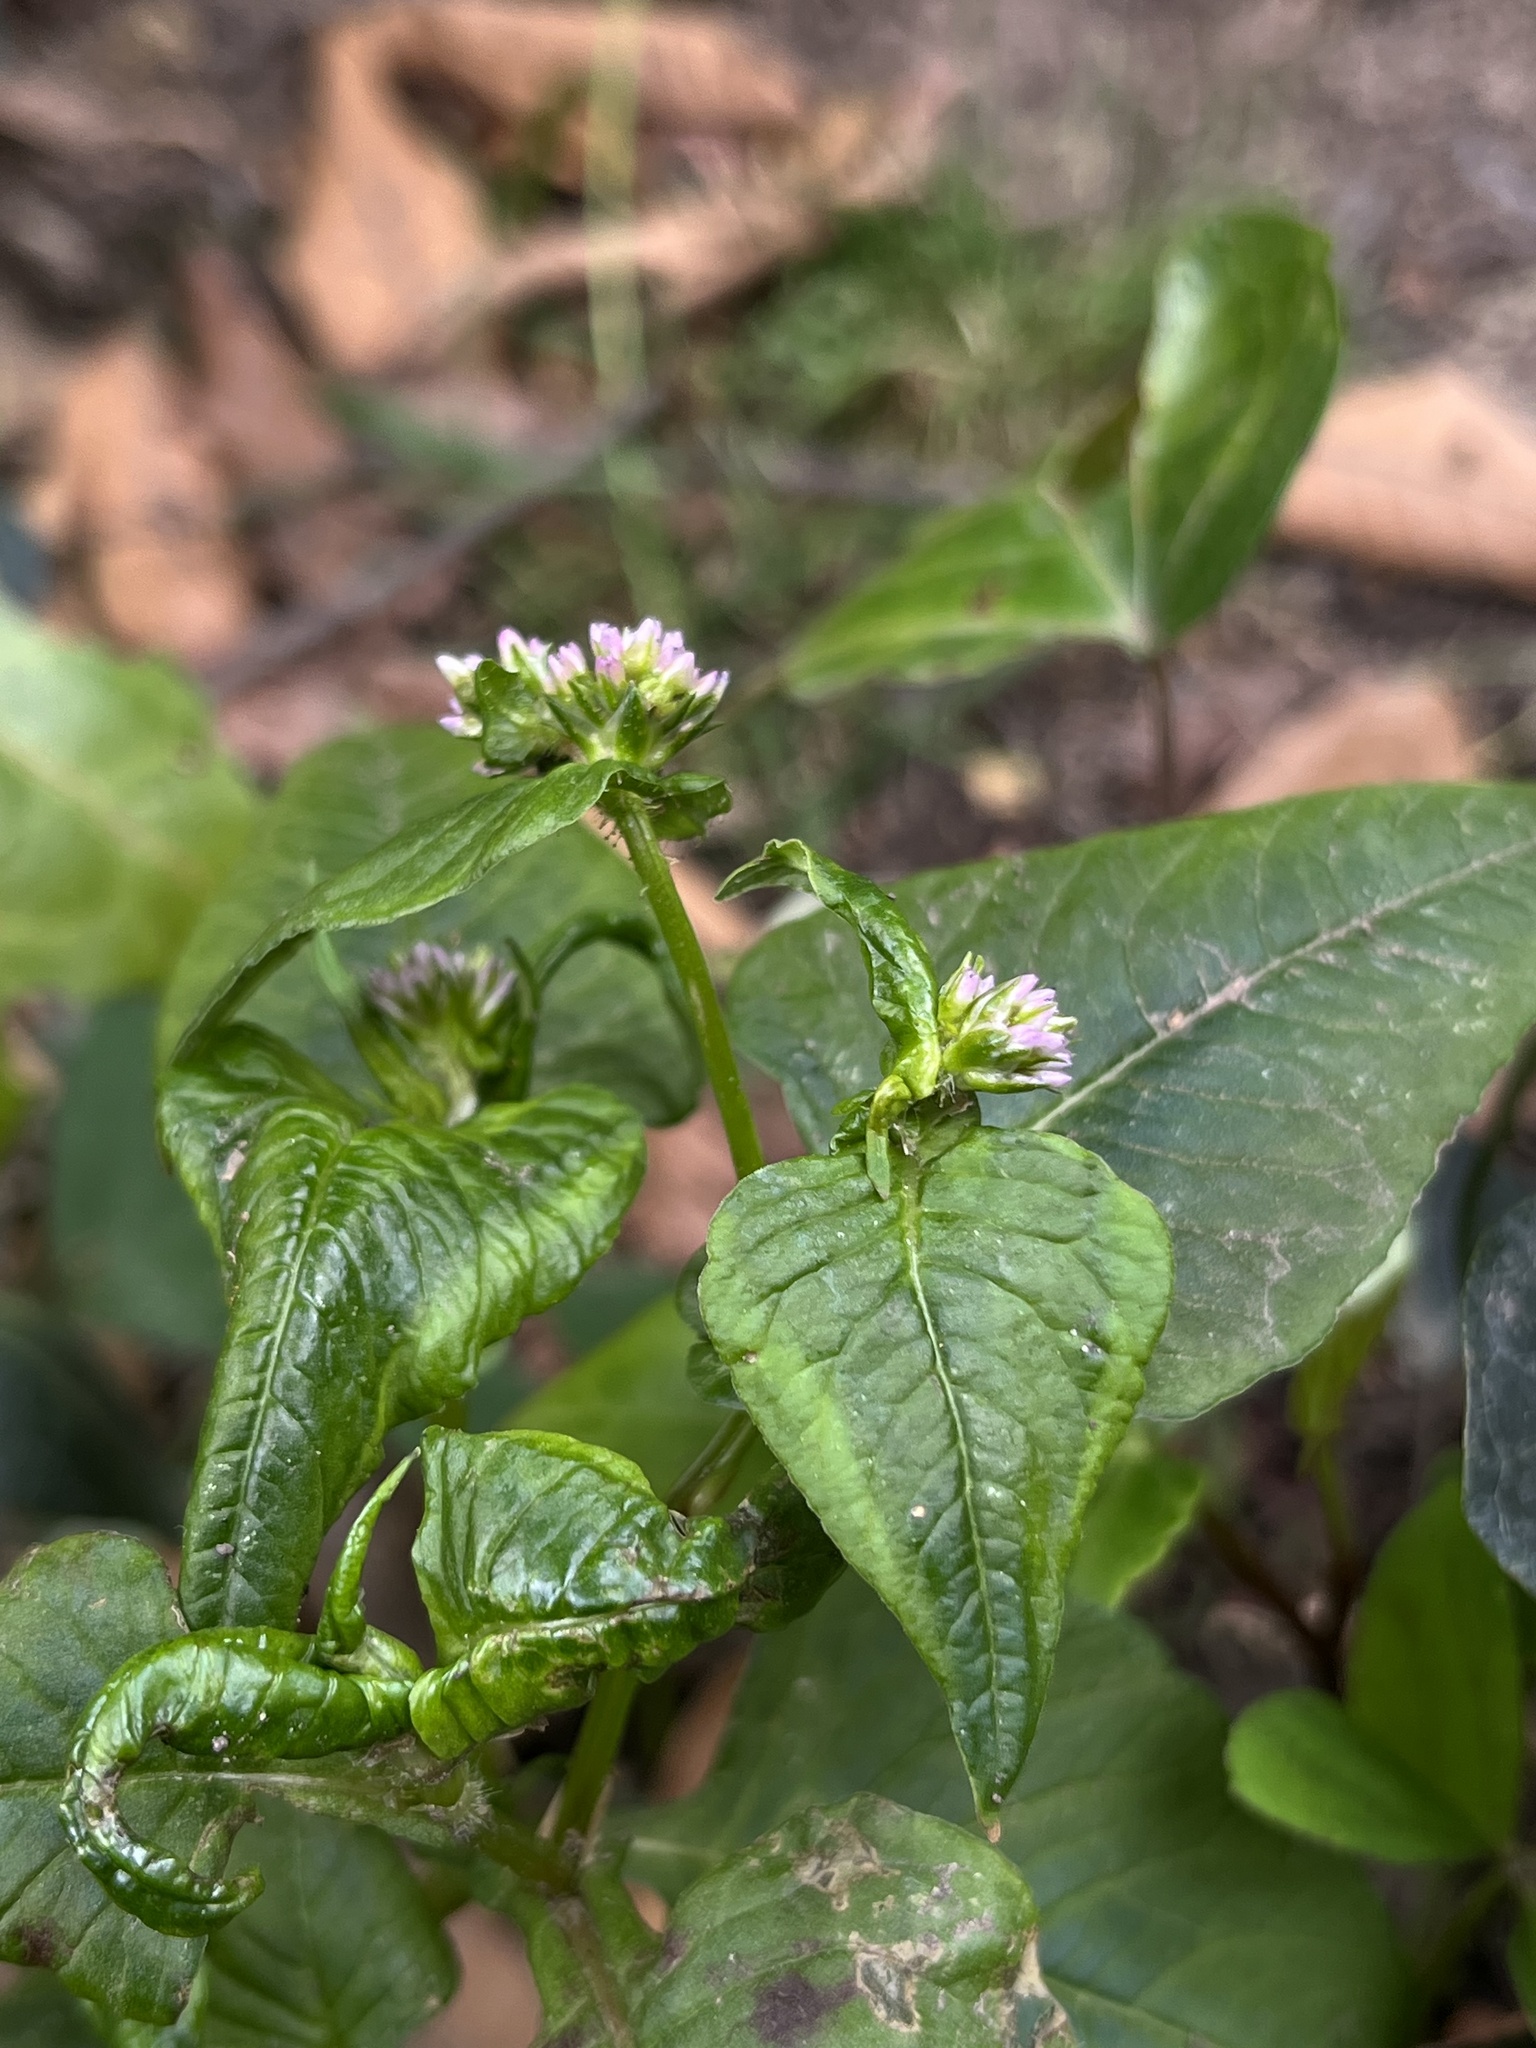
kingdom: Plantae
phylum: Tracheophyta
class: Magnoliopsida
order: Caryophyllales
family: Polygonaceae
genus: Persicaria
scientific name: Persicaria nepalensis
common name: Nepal persicaria
